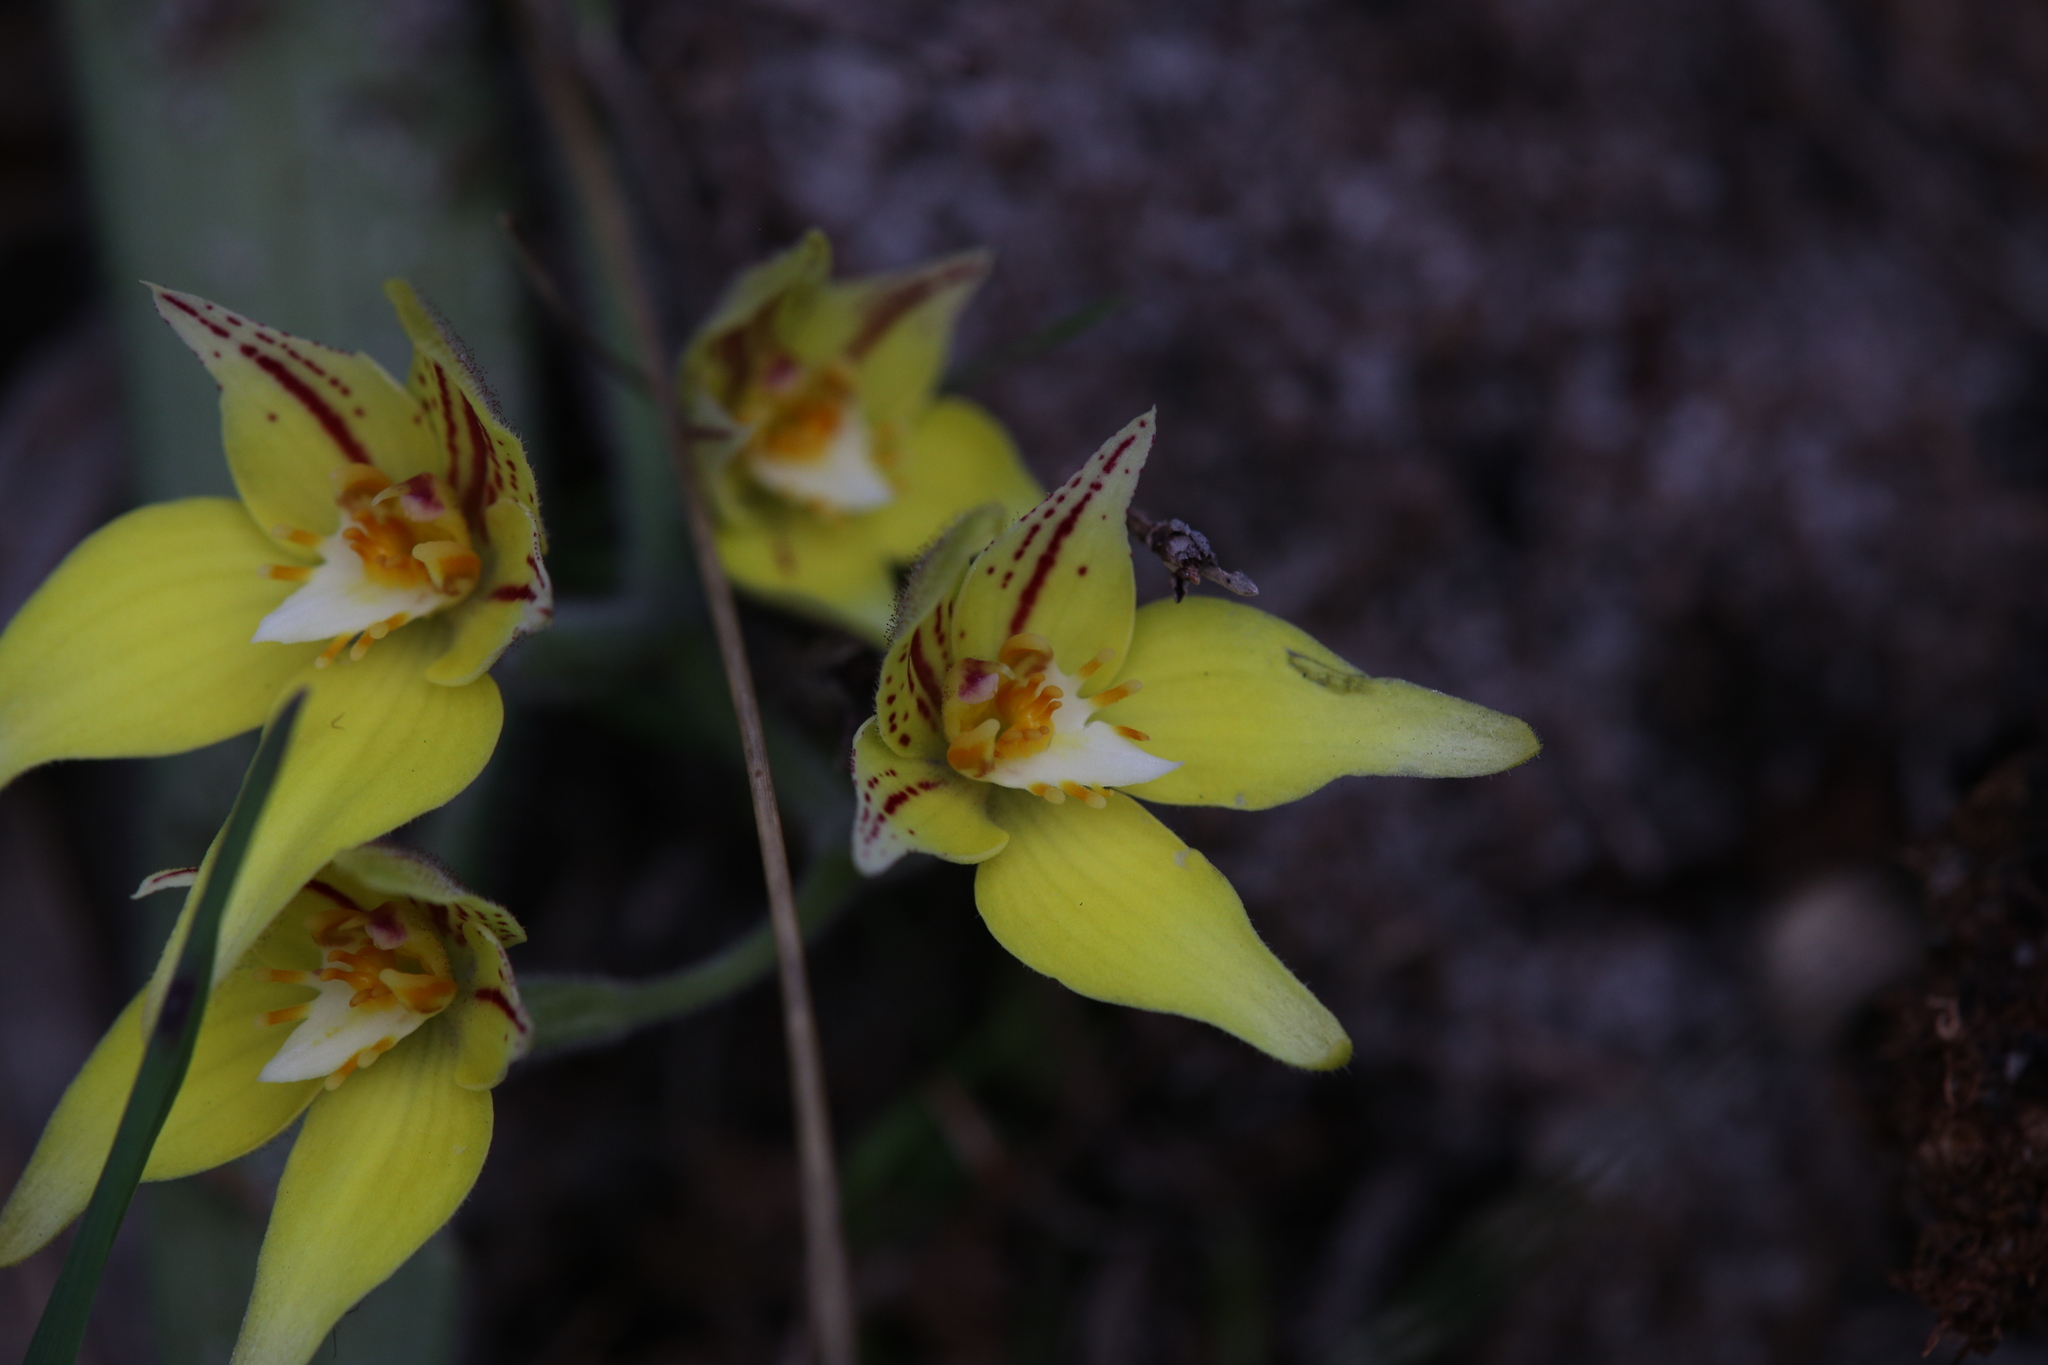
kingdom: Plantae
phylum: Tracheophyta
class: Liliopsida
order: Asparagales
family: Orchidaceae
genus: Caladenia
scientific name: Caladenia flava
